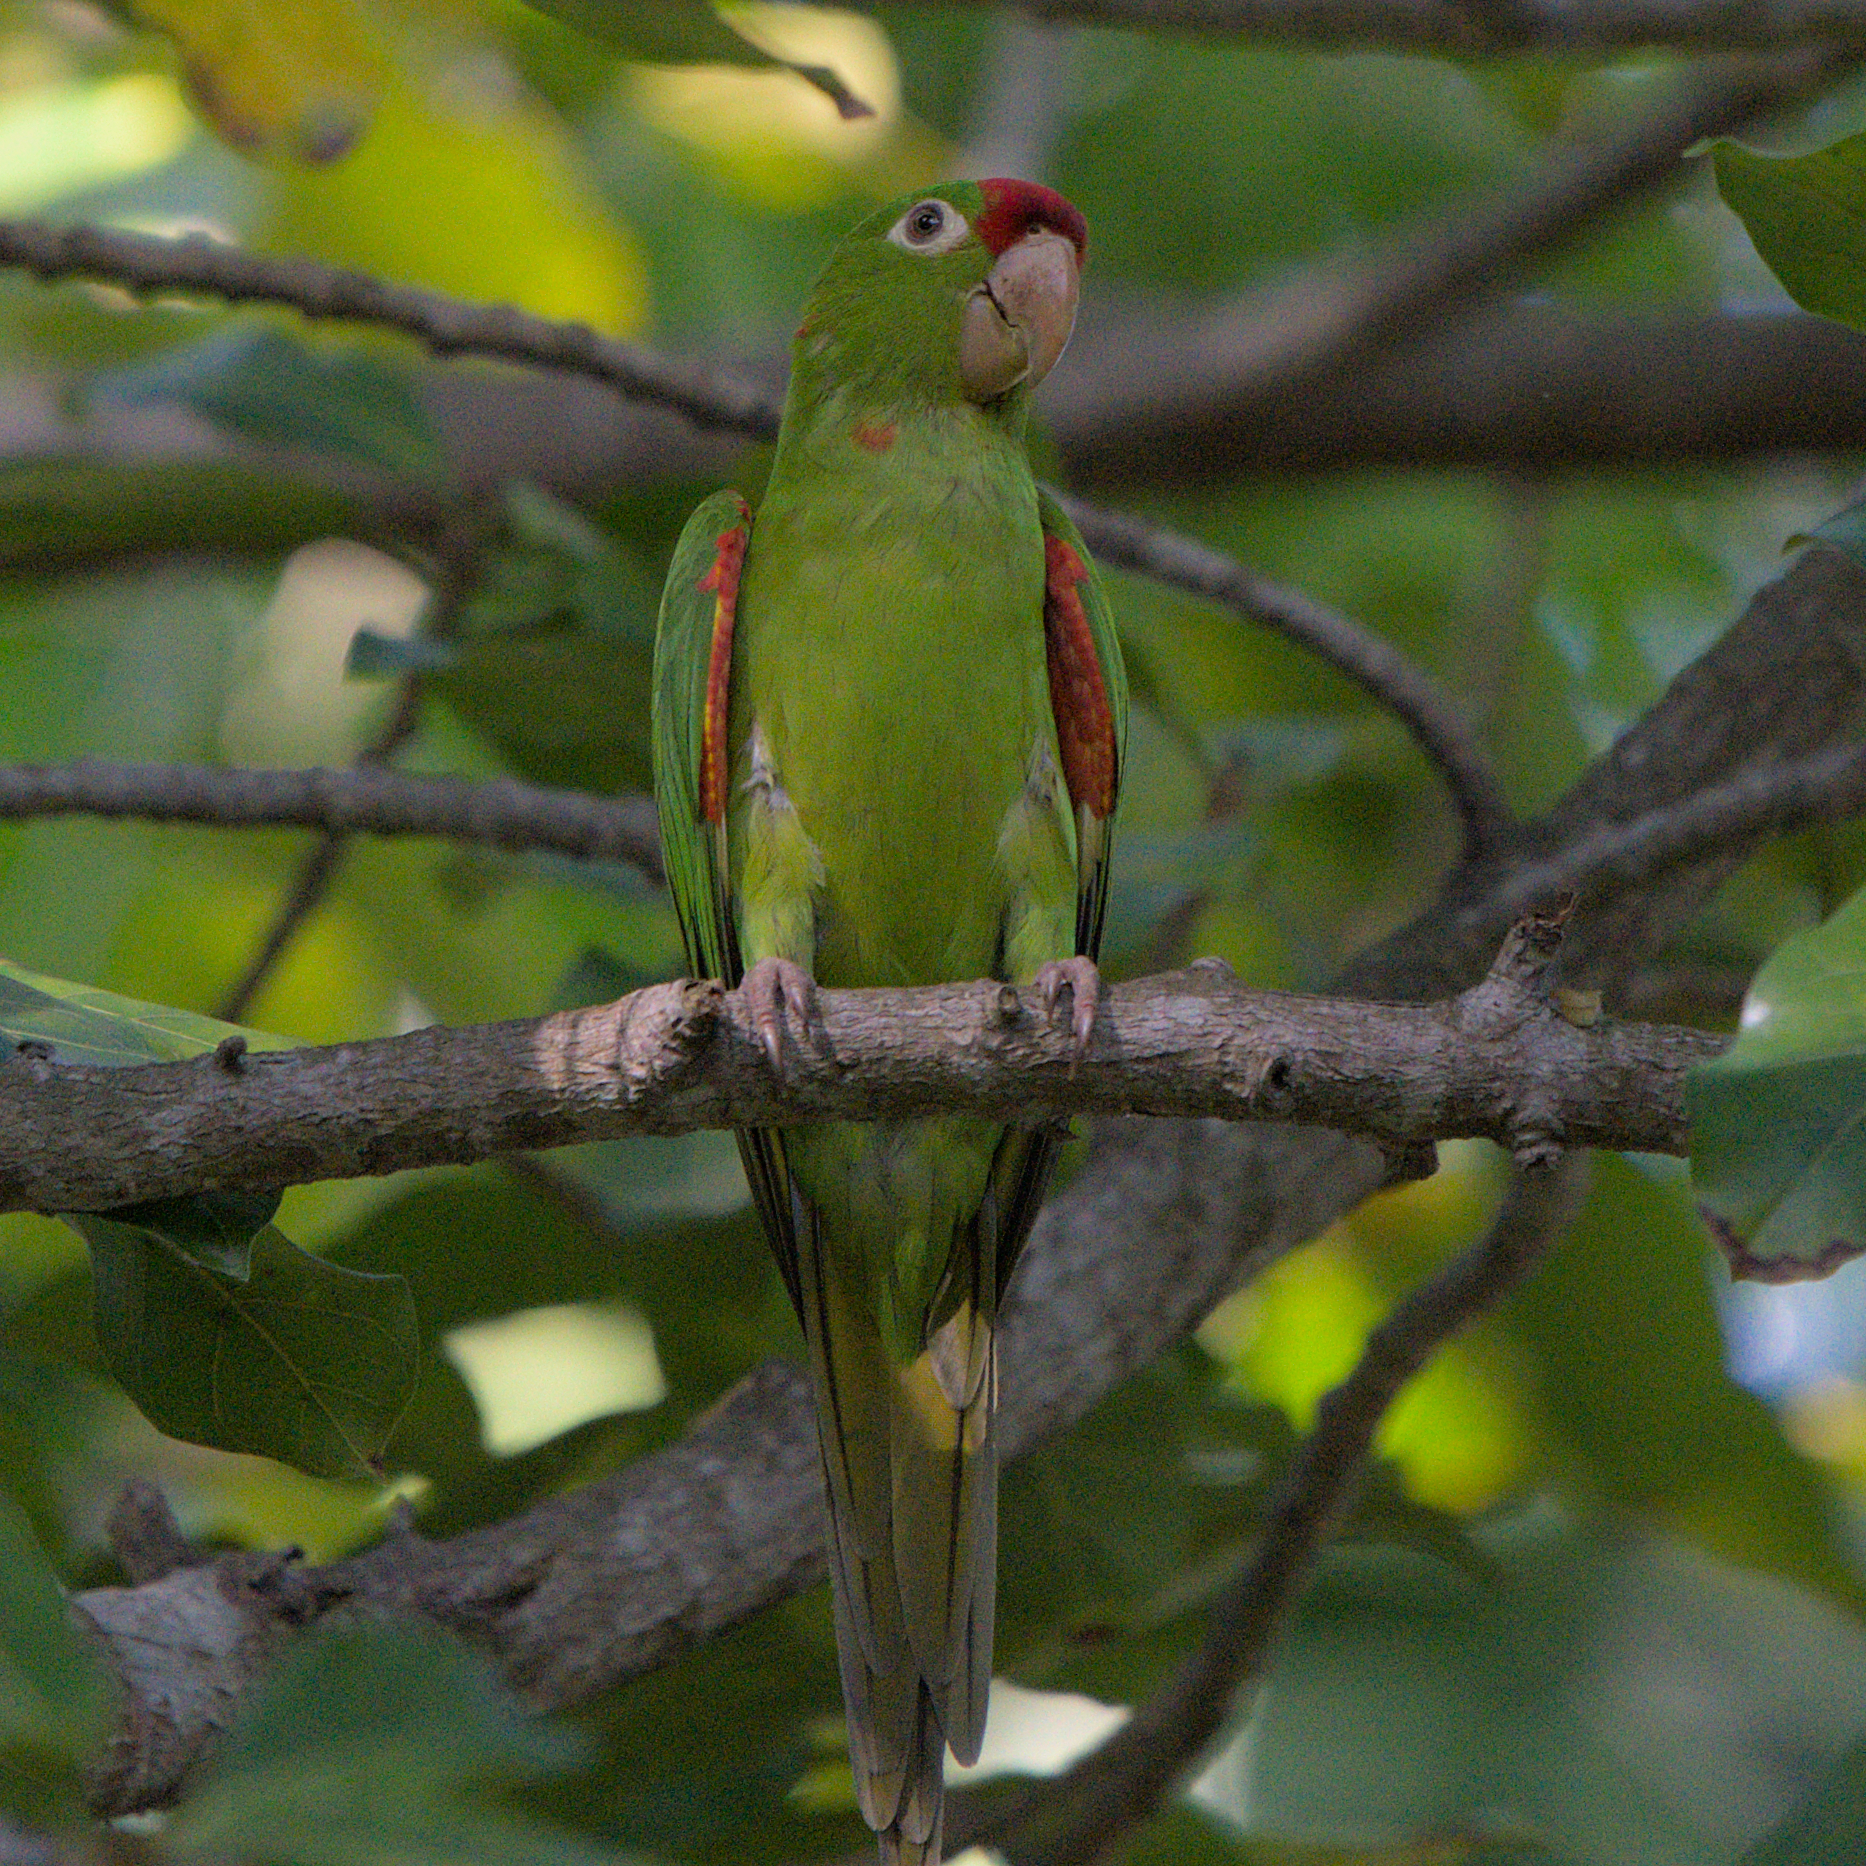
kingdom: Animalia
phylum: Chordata
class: Aves
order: Psittaciformes
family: Psittacidae
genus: Aratinga
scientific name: Aratinga finschi
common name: Crimson-fronted parakeet
